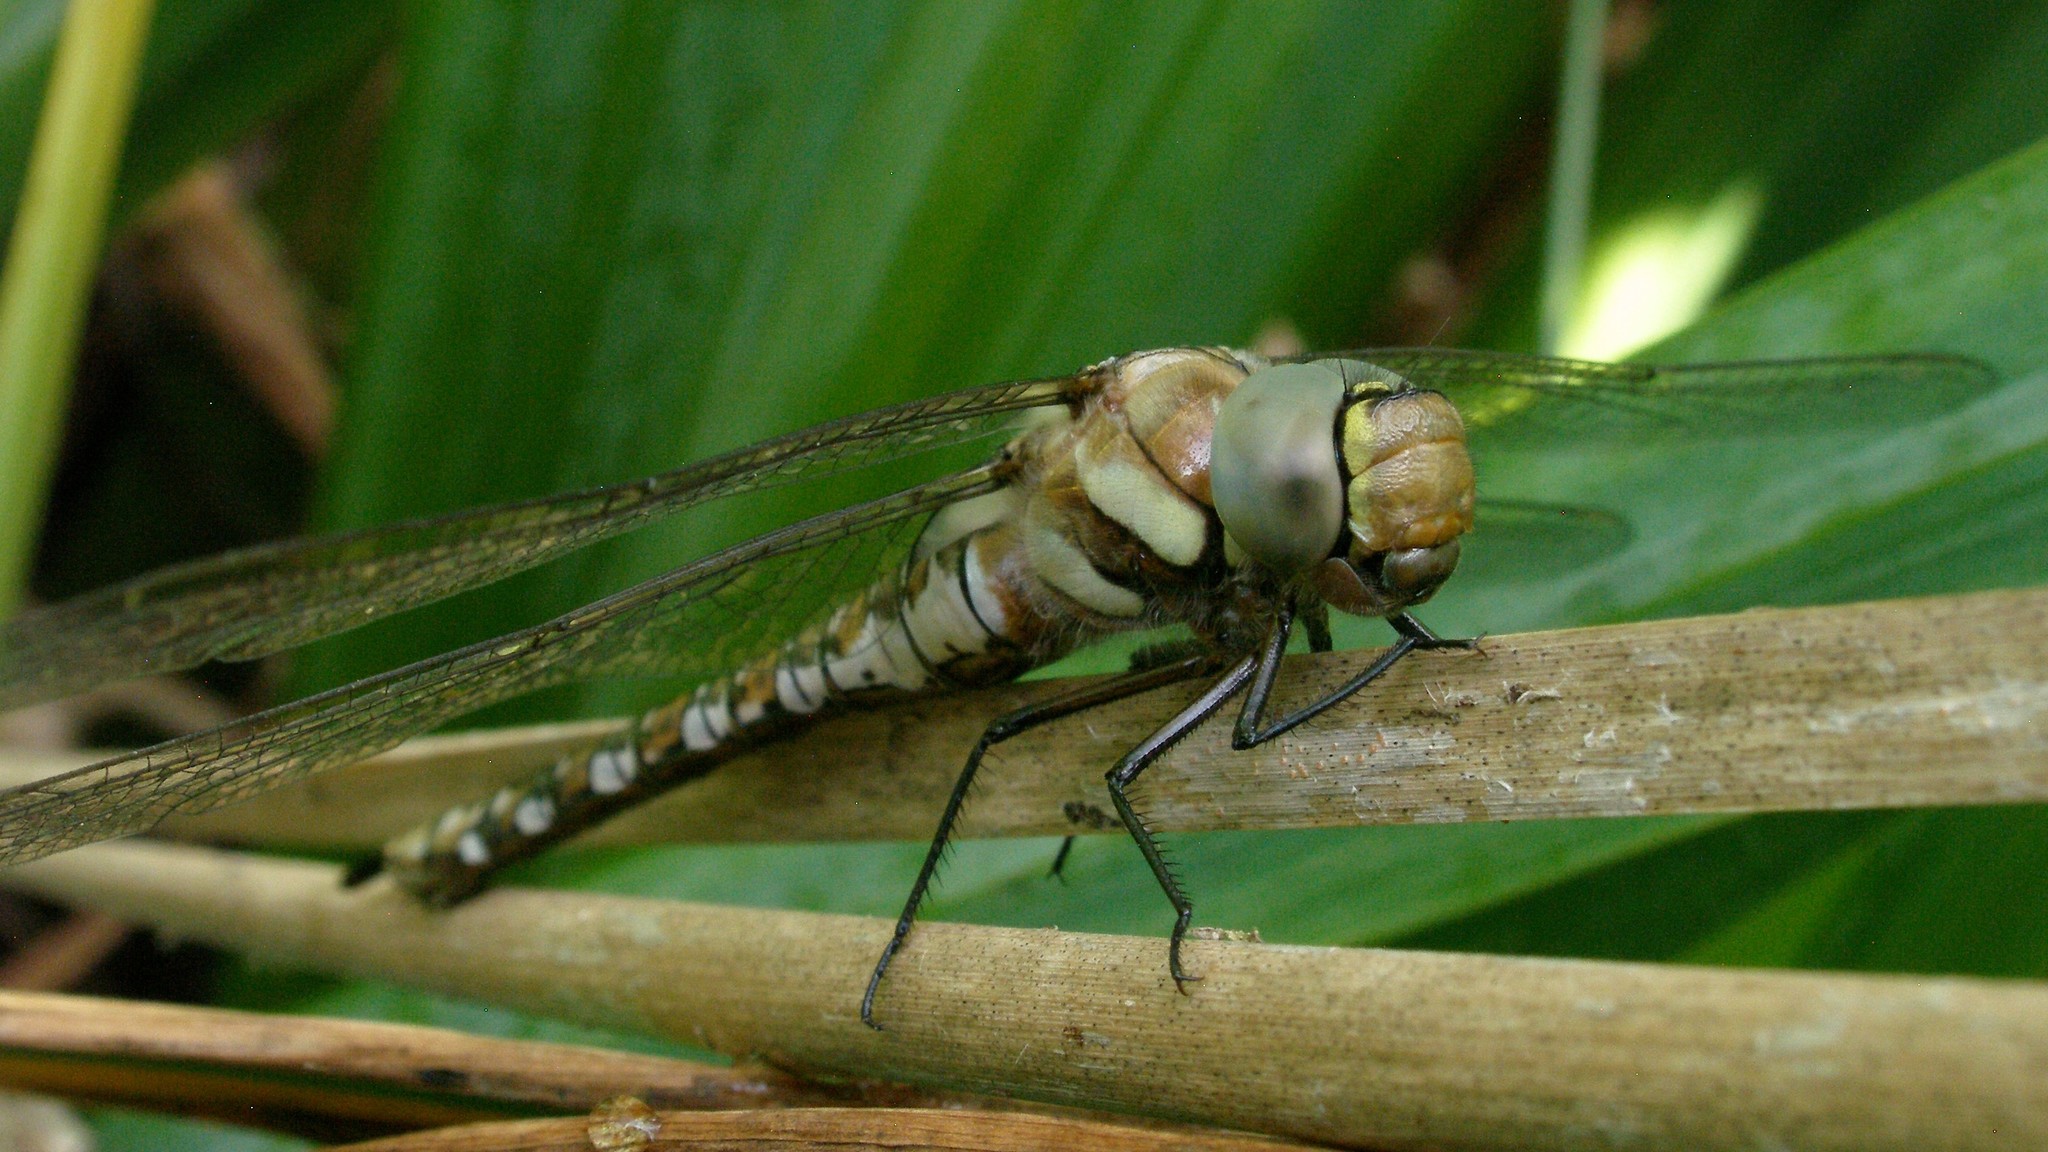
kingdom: Animalia
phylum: Arthropoda
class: Insecta
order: Odonata
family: Aeshnidae
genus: Aeshna
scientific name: Aeshna mixta
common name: Migrant hawker
